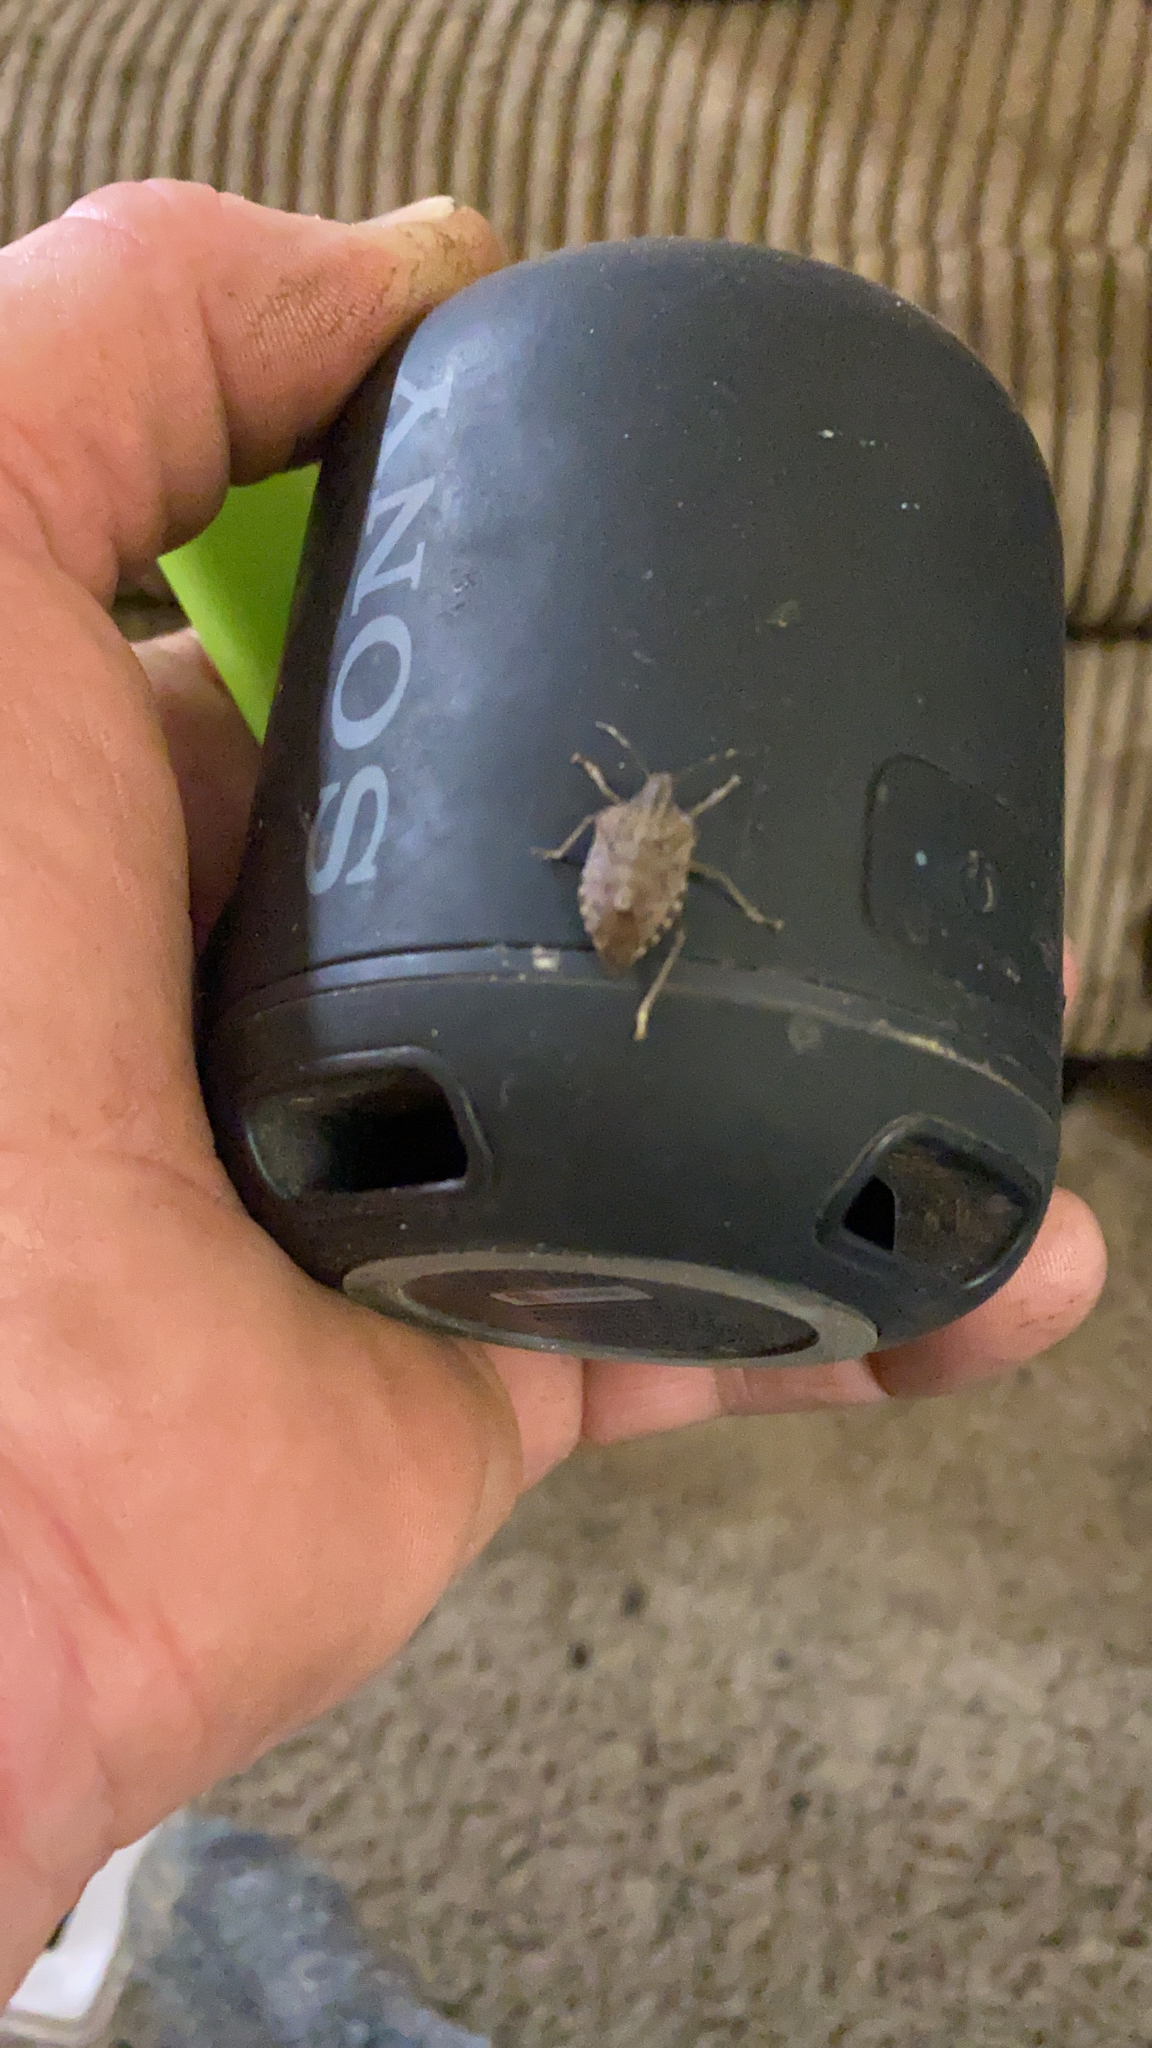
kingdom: Animalia
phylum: Arthropoda
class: Insecta
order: Hemiptera
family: Pentatomidae
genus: Halyomorpha
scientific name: Halyomorpha halys
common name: Brown marmorated stink bug
